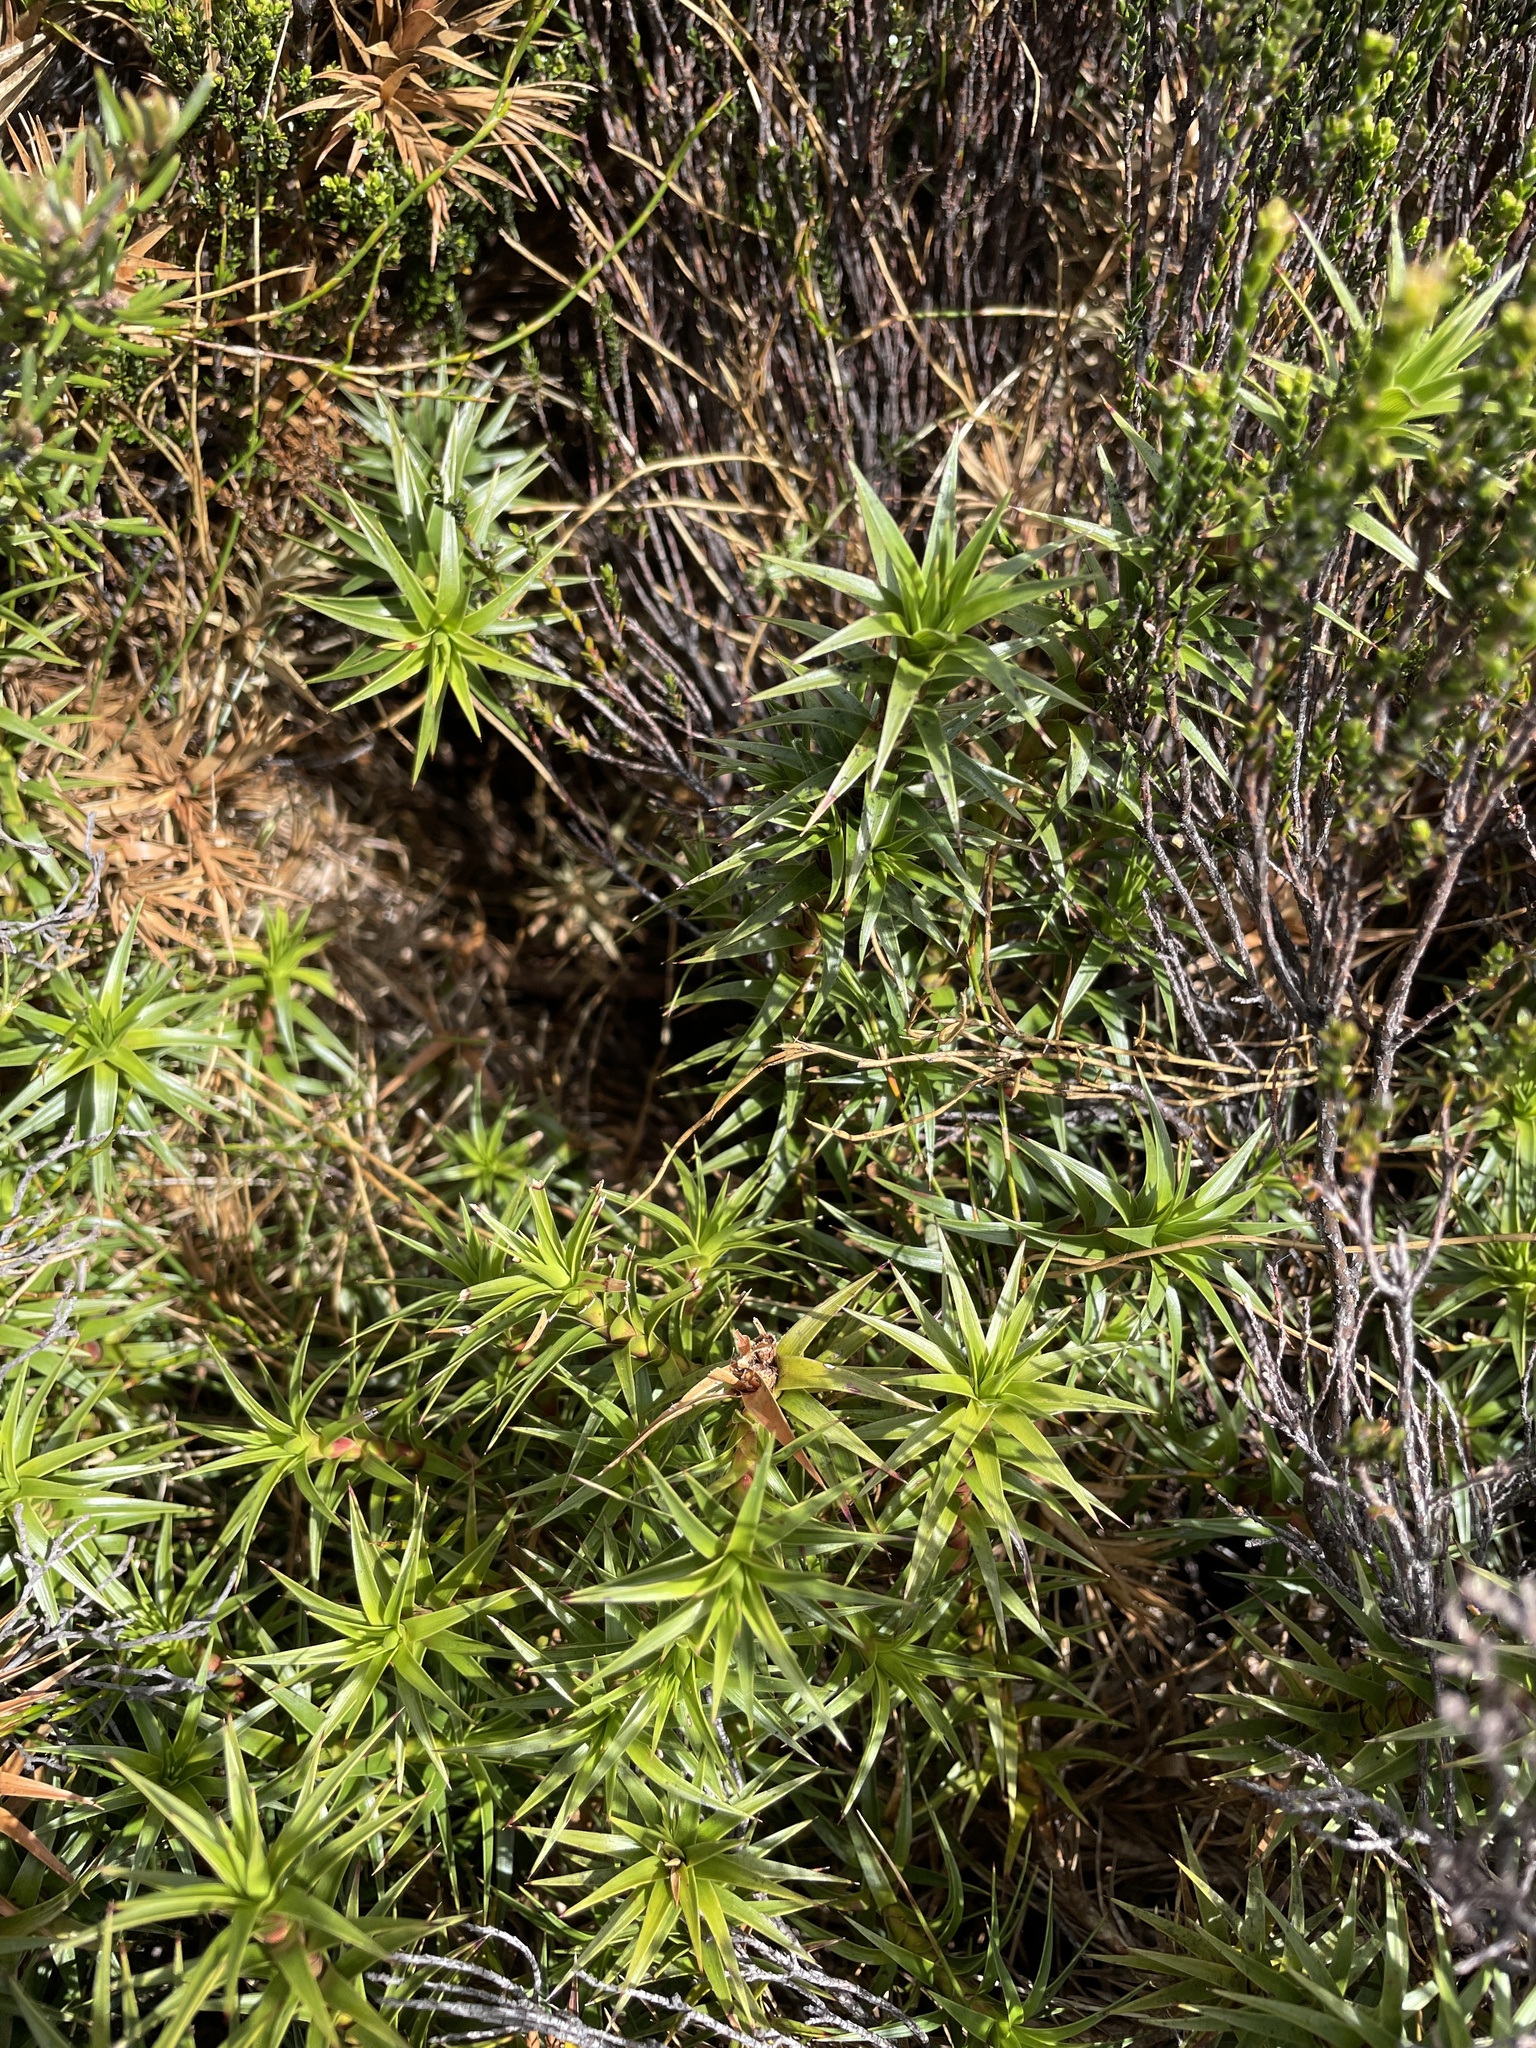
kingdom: Plantae
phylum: Tracheophyta
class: Magnoliopsida
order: Ericales
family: Ericaceae
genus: Dracophyllum
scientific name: Dracophyllum continentis
